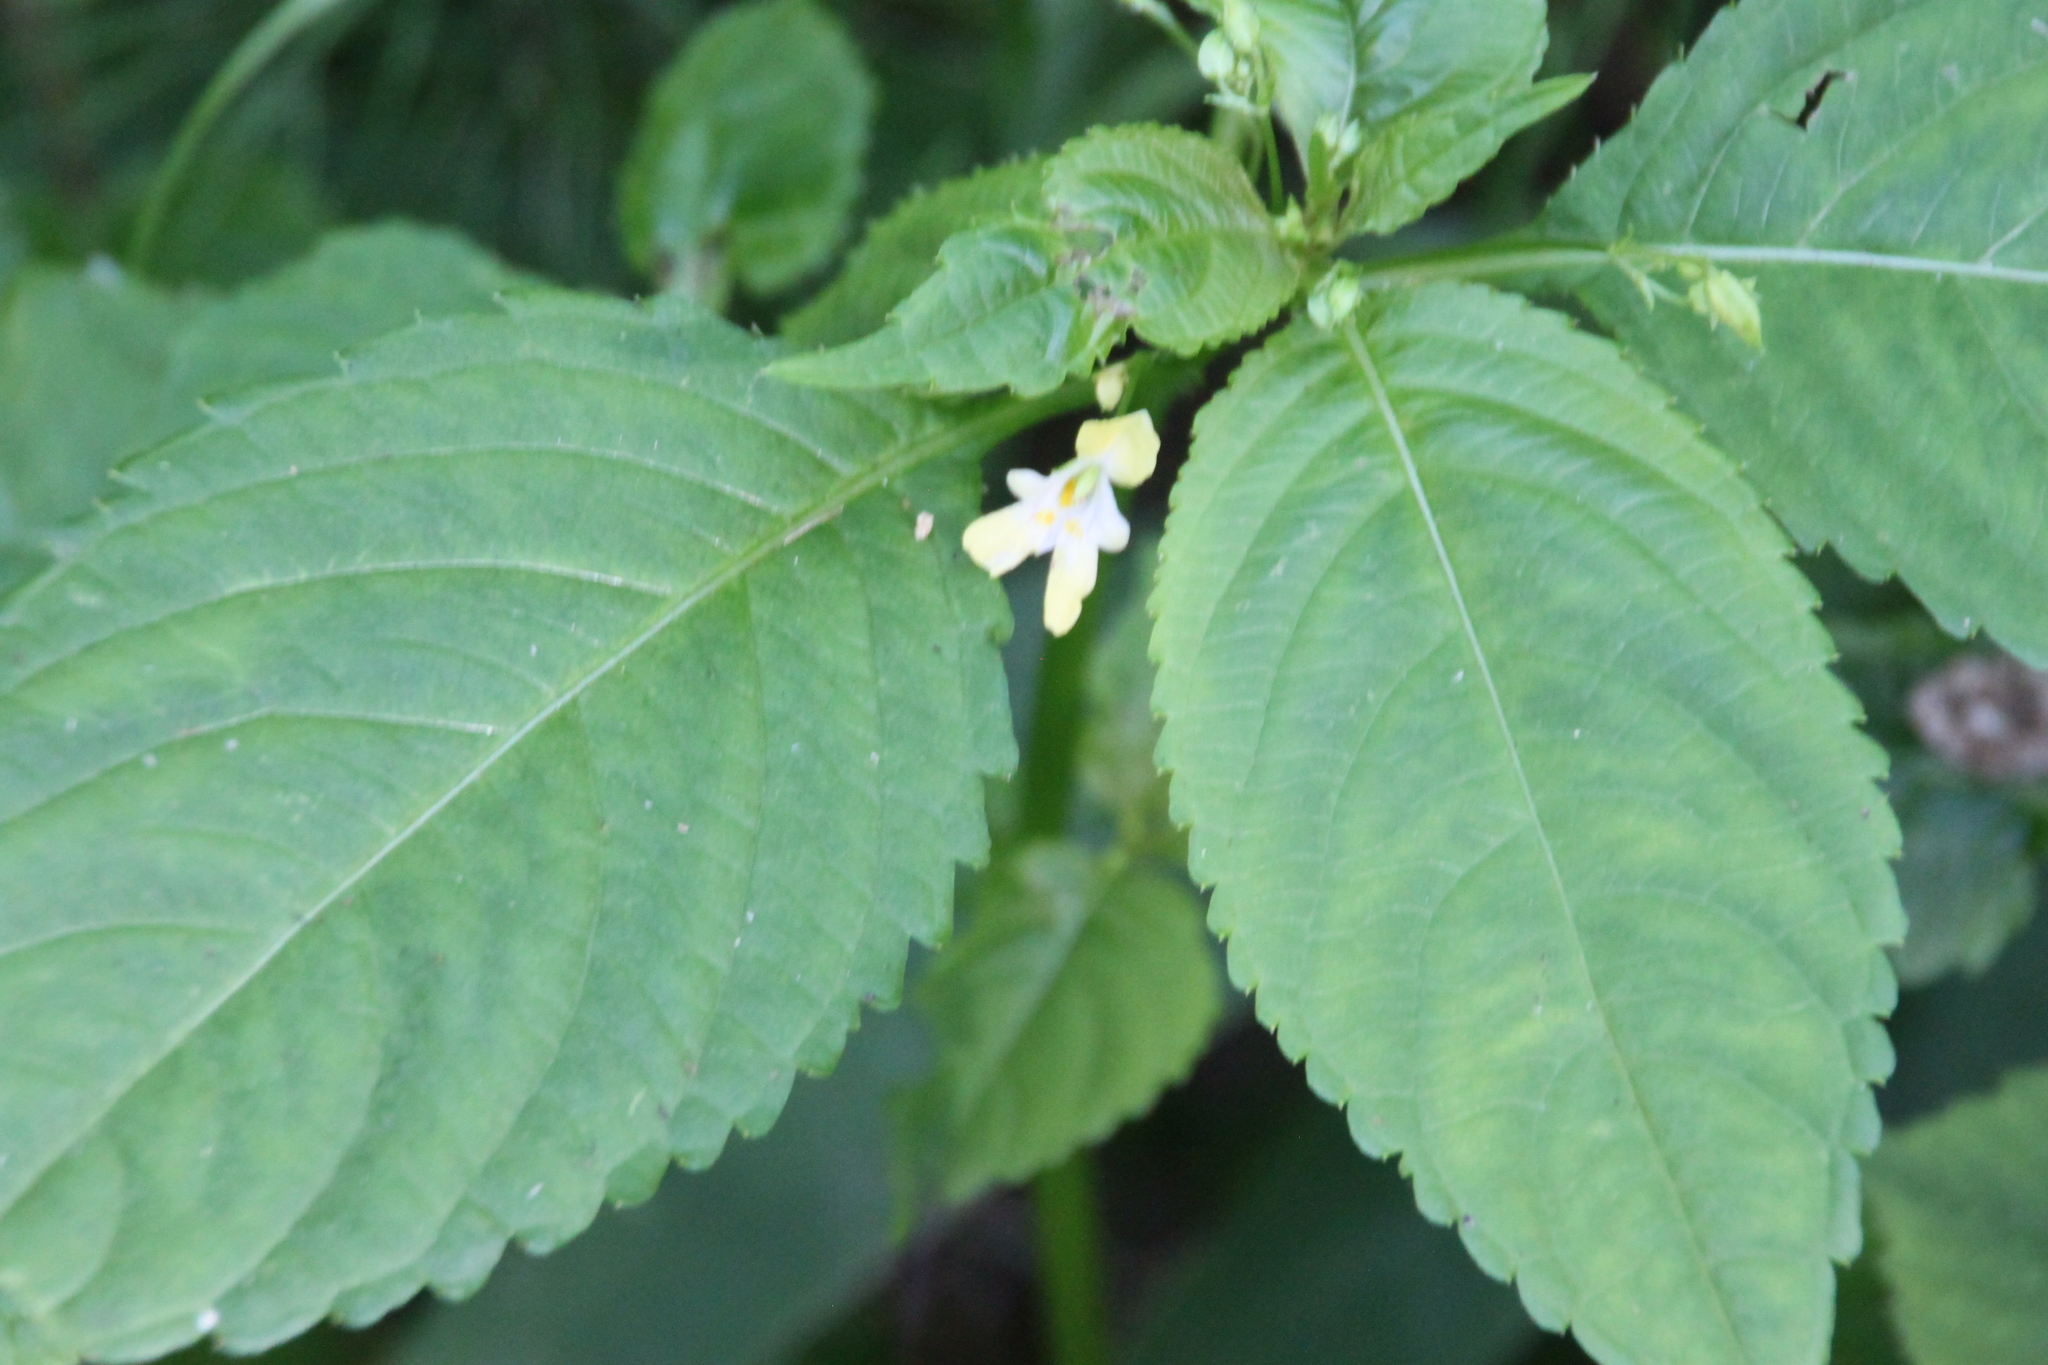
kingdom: Plantae
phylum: Tracheophyta
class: Magnoliopsida
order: Ericales
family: Balsaminaceae
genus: Impatiens
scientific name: Impatiens parviflora
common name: Small balsam
